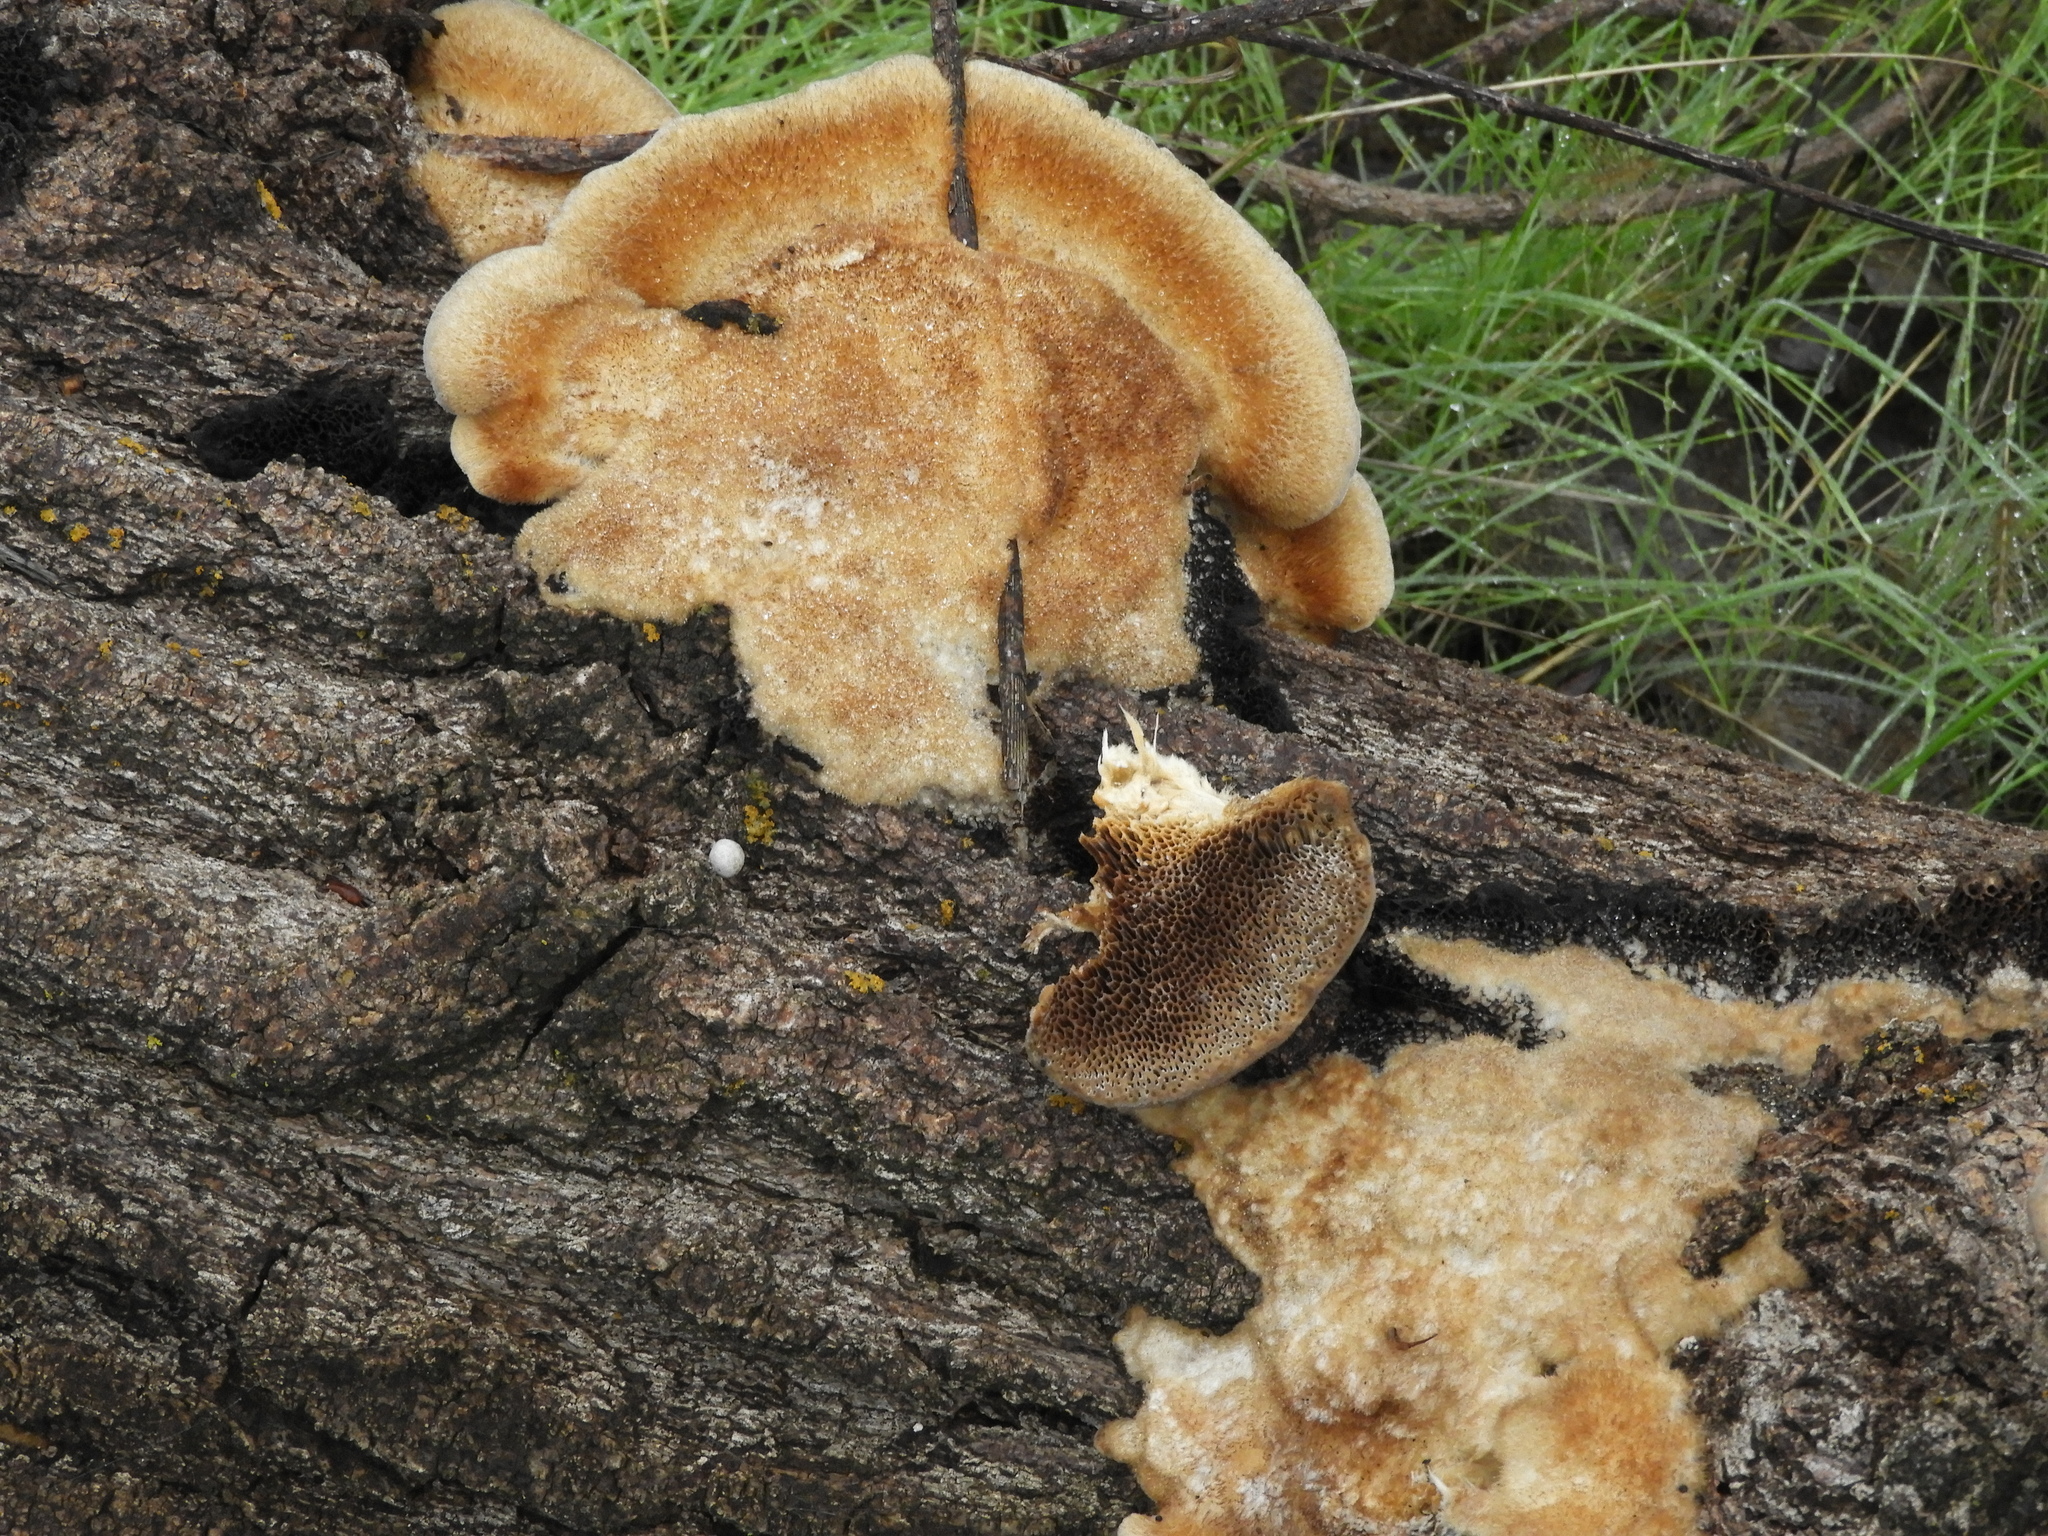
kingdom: Fungi
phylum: Basidiomycota
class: Agaricomycetes
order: Polyporales
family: Polyporaceae
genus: Coriolopsis
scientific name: Coriolopsis gallica
